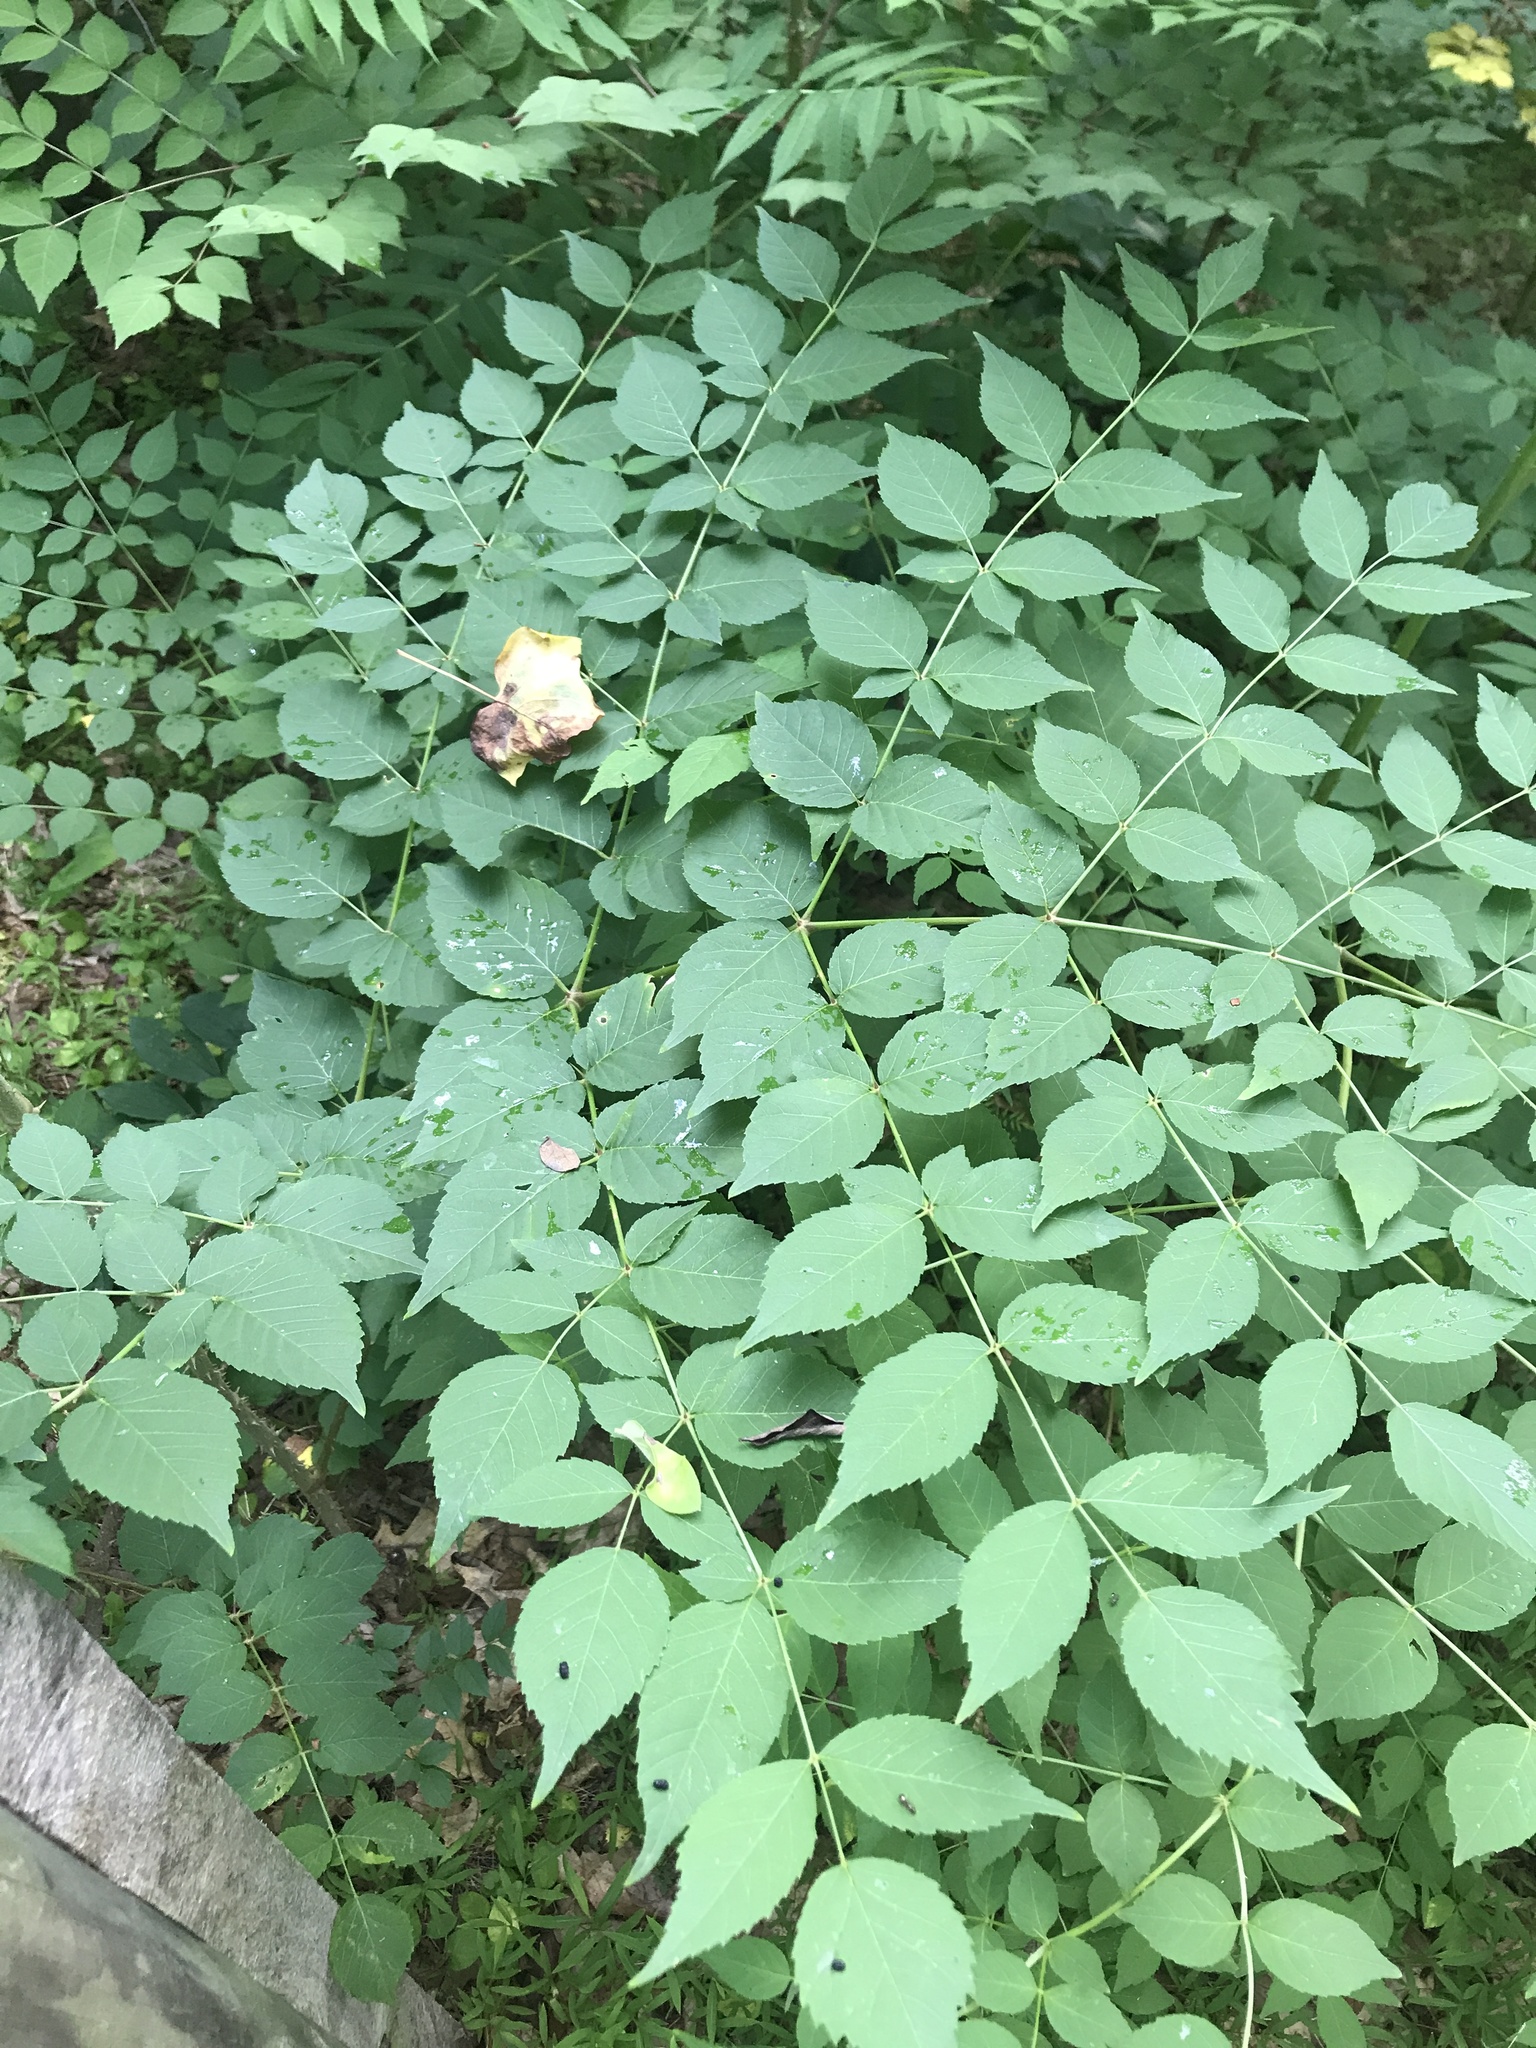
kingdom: Plantae
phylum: Tracheophyta
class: Magnoliopsida
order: Apiales
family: Araliaceae
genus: Aralia
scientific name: Aralia elata
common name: Japanese angelica-tree
